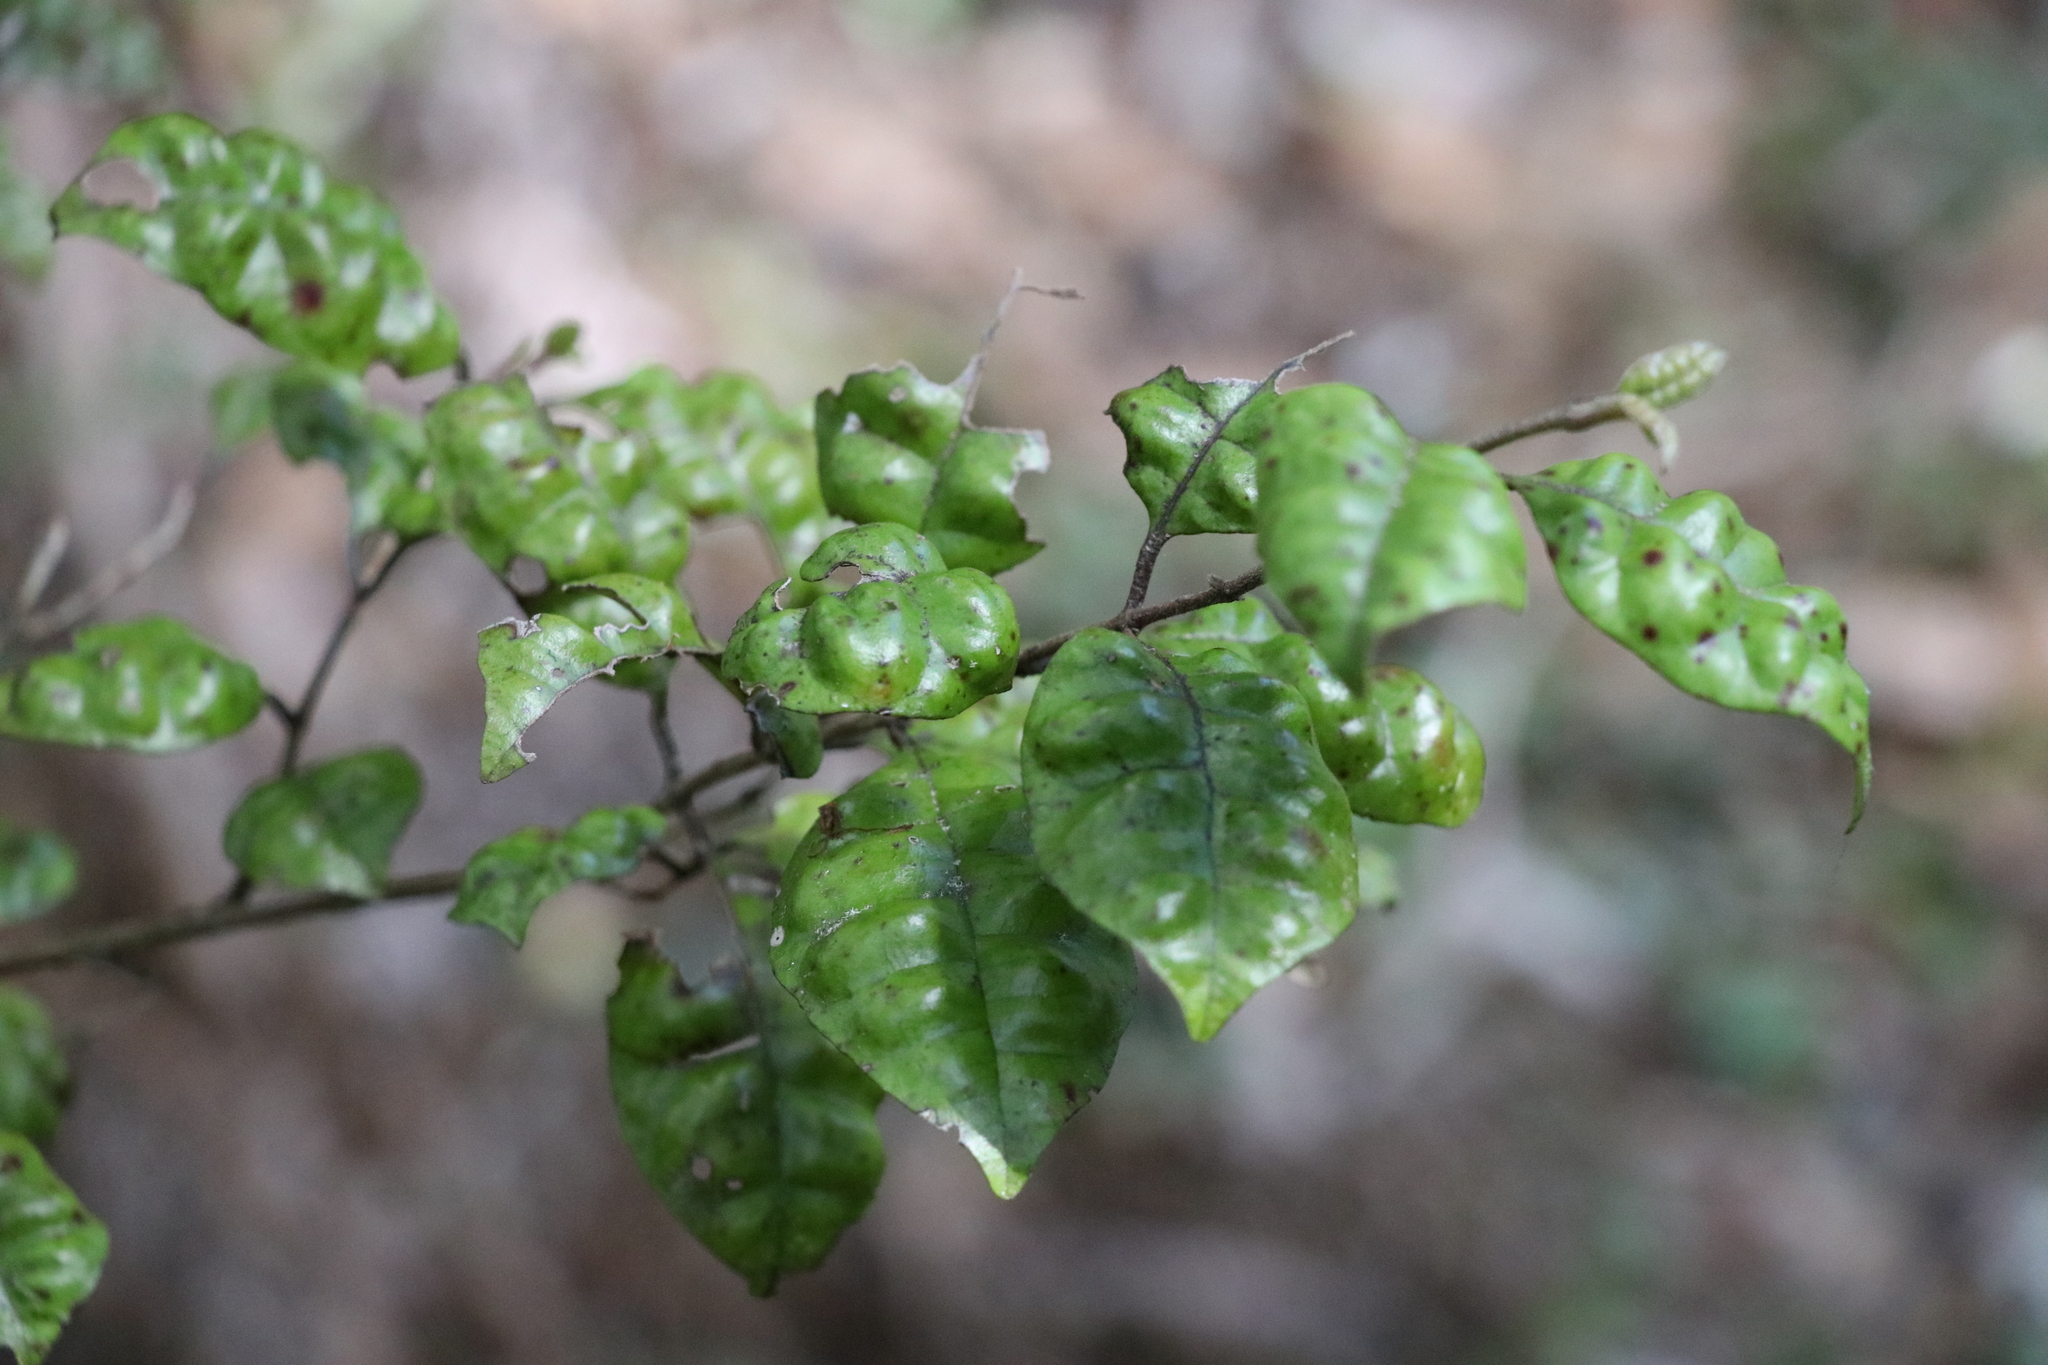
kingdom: Plantae
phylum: Tracheophyta
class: Magnoliopsida
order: Myrtales
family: Myrtaceae
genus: Lophomyrtus
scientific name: Lophomyrtus bullata
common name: Rama rama
